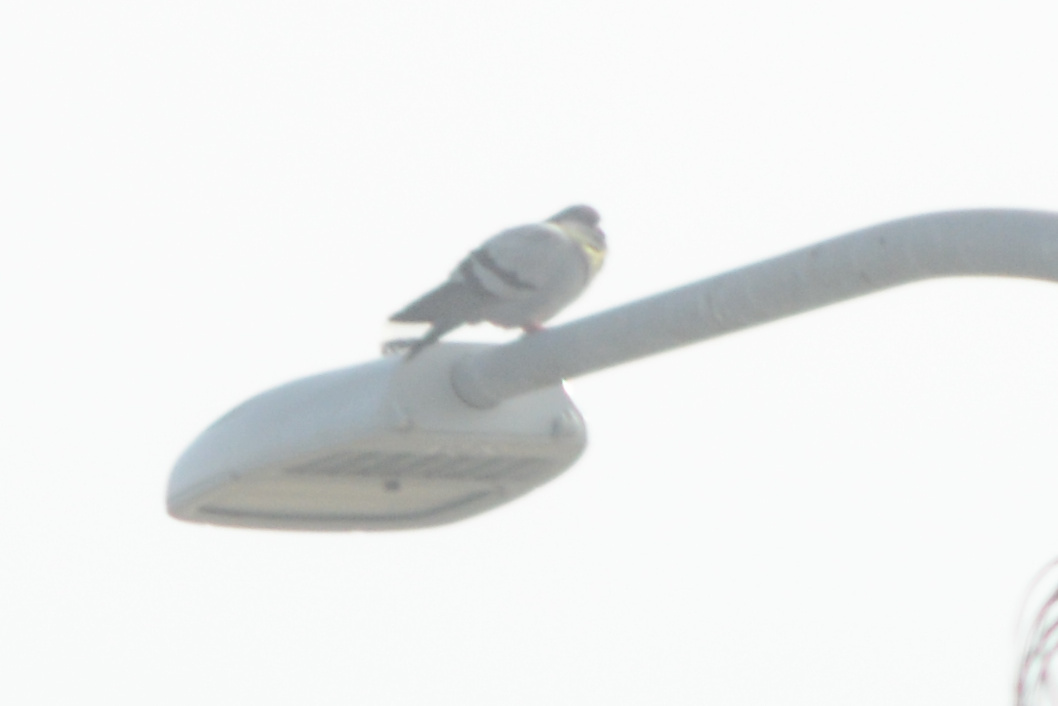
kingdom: Animalia
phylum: Chordata
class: Aves
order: Columbiformes
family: Columbidae
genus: Columba
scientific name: Columba livia
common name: Rock pigeon
